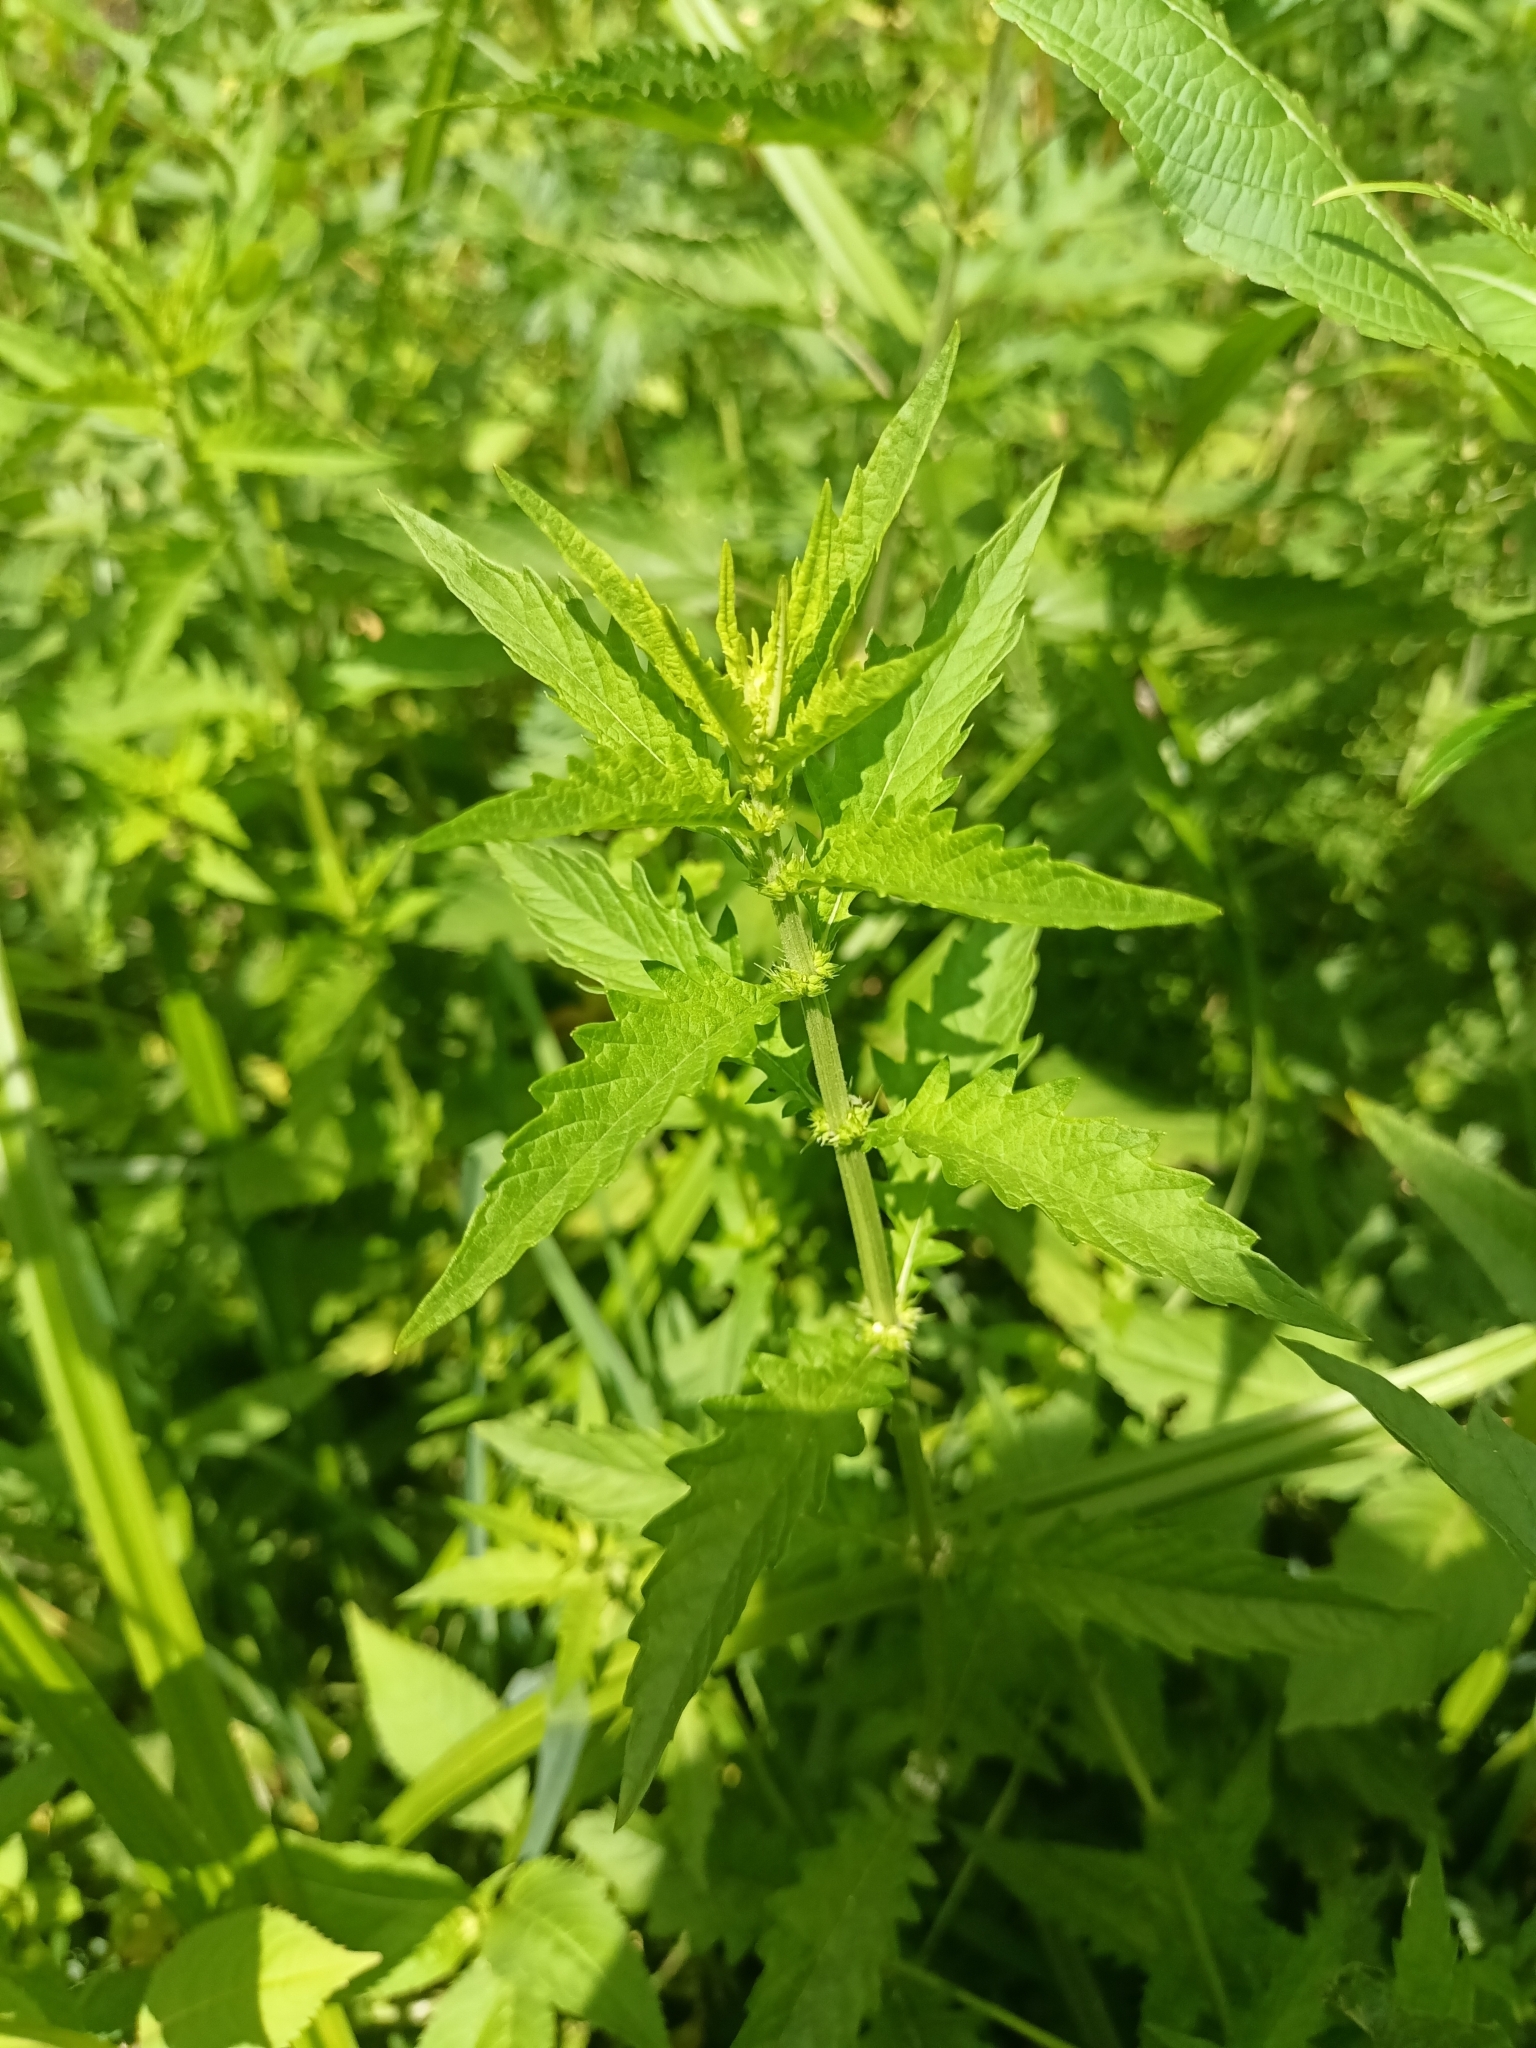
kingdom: Plantae
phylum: Tracheophyta
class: Magnoliopsida
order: Lamiales
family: Lamiaceae
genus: Lycopus
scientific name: Lycopus europaeus
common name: European bugleweed
